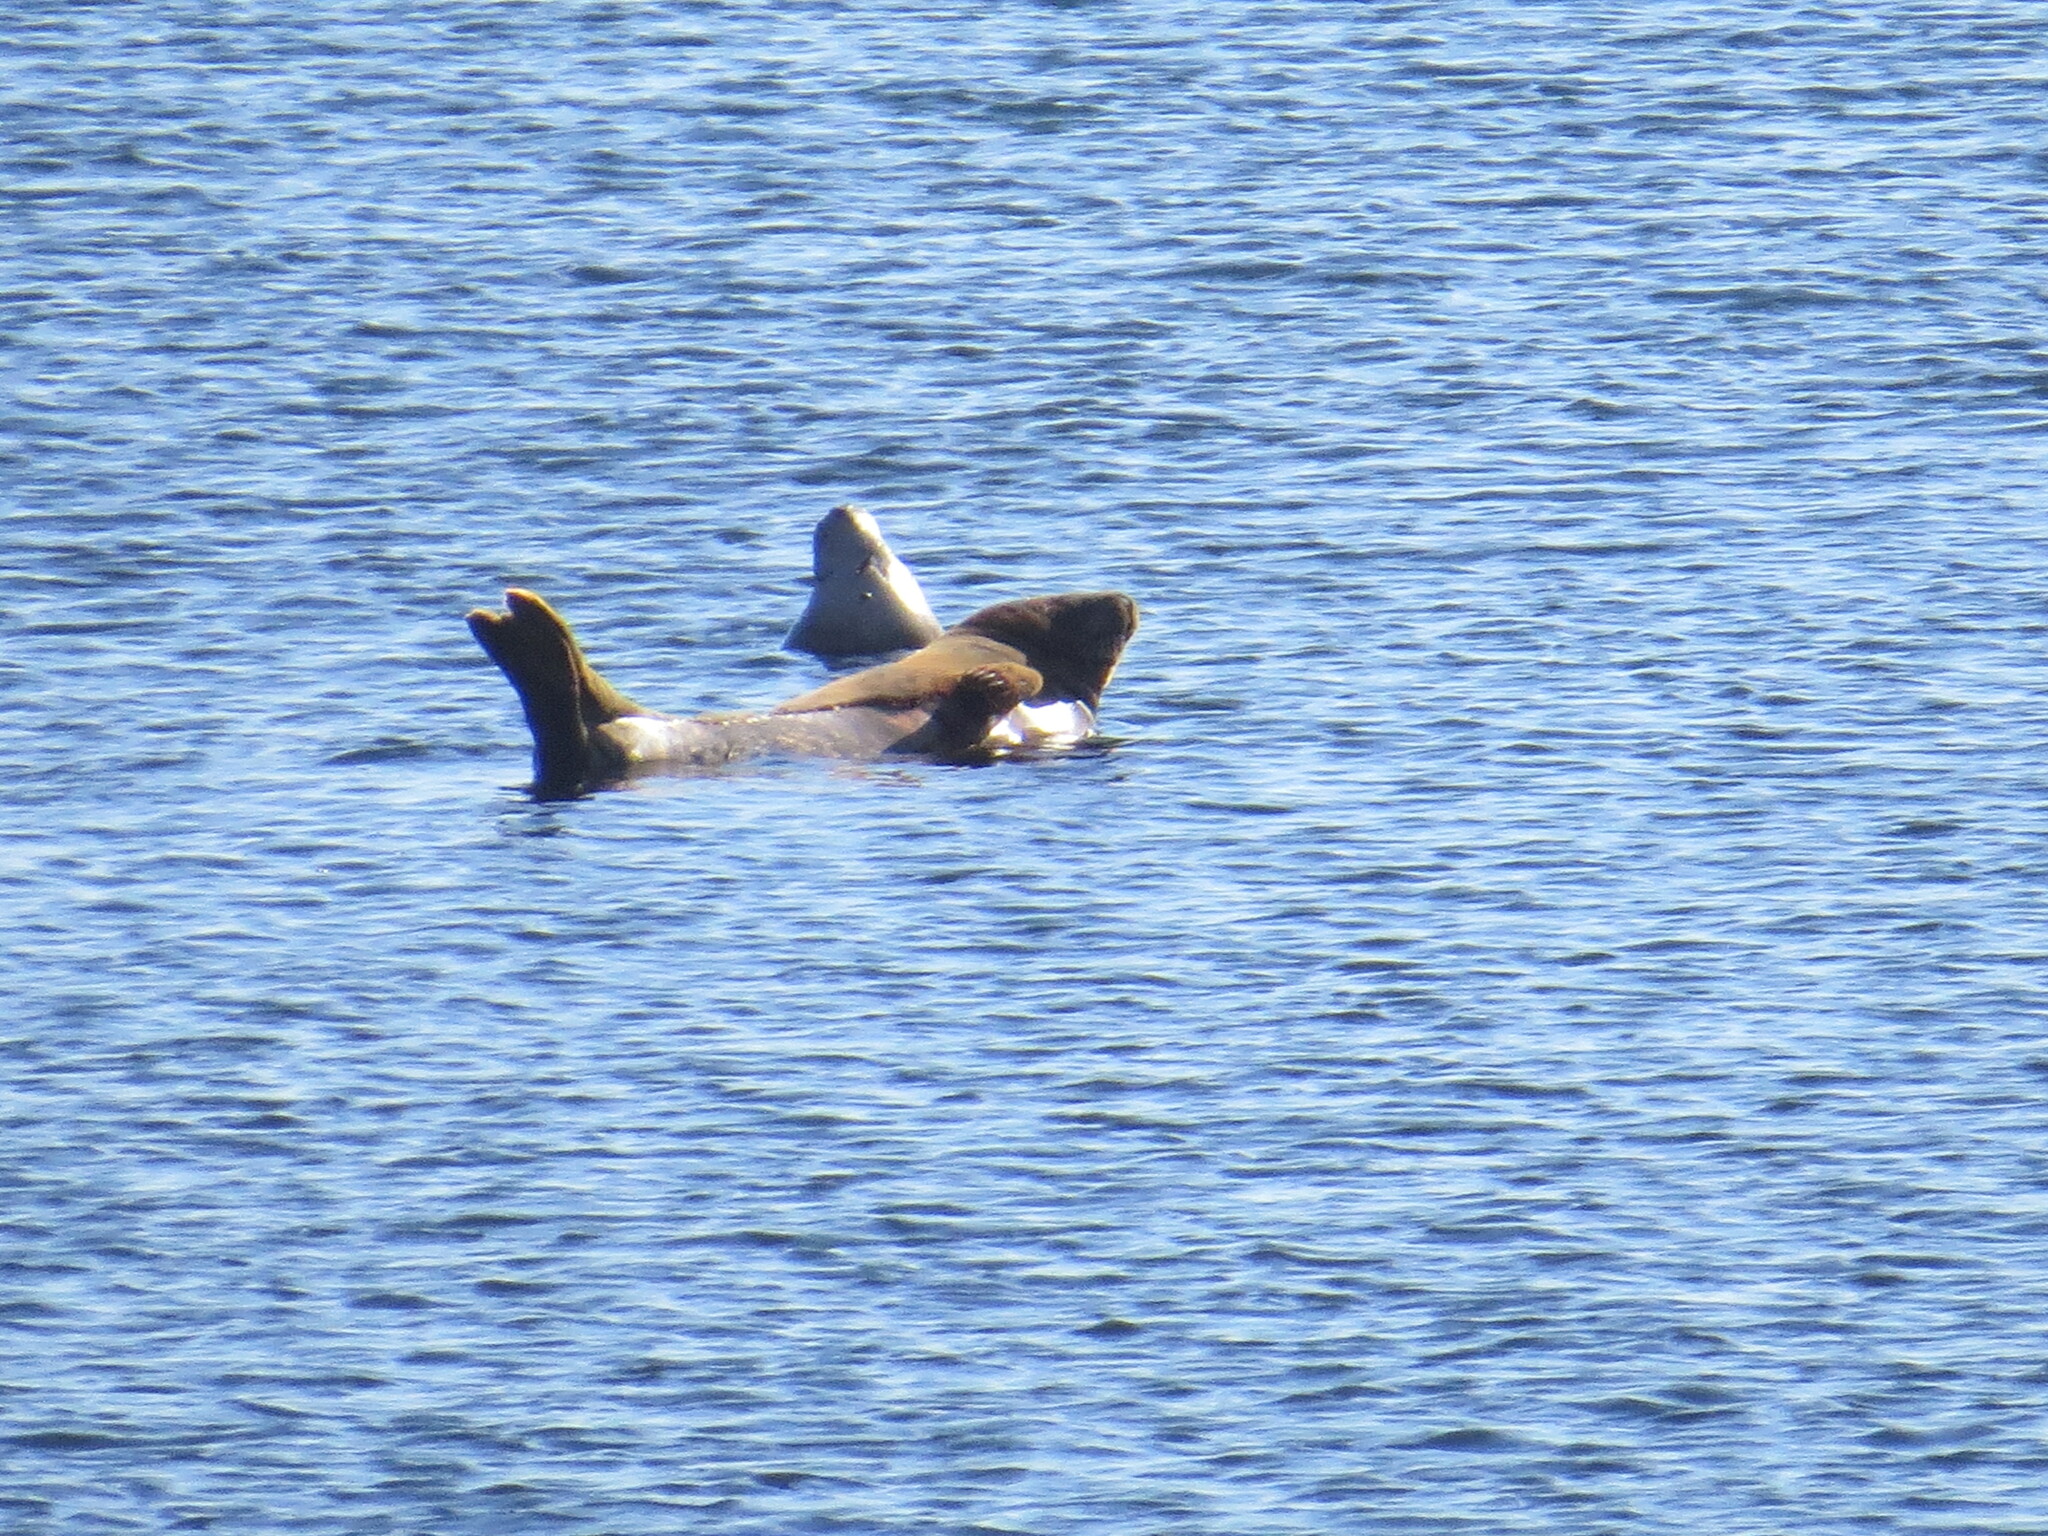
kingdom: Animalia
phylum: Chordata
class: Mammalia
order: Carnivora
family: Phocidae
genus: Halichoerus
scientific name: Halichoerus grypus
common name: Grey seal
